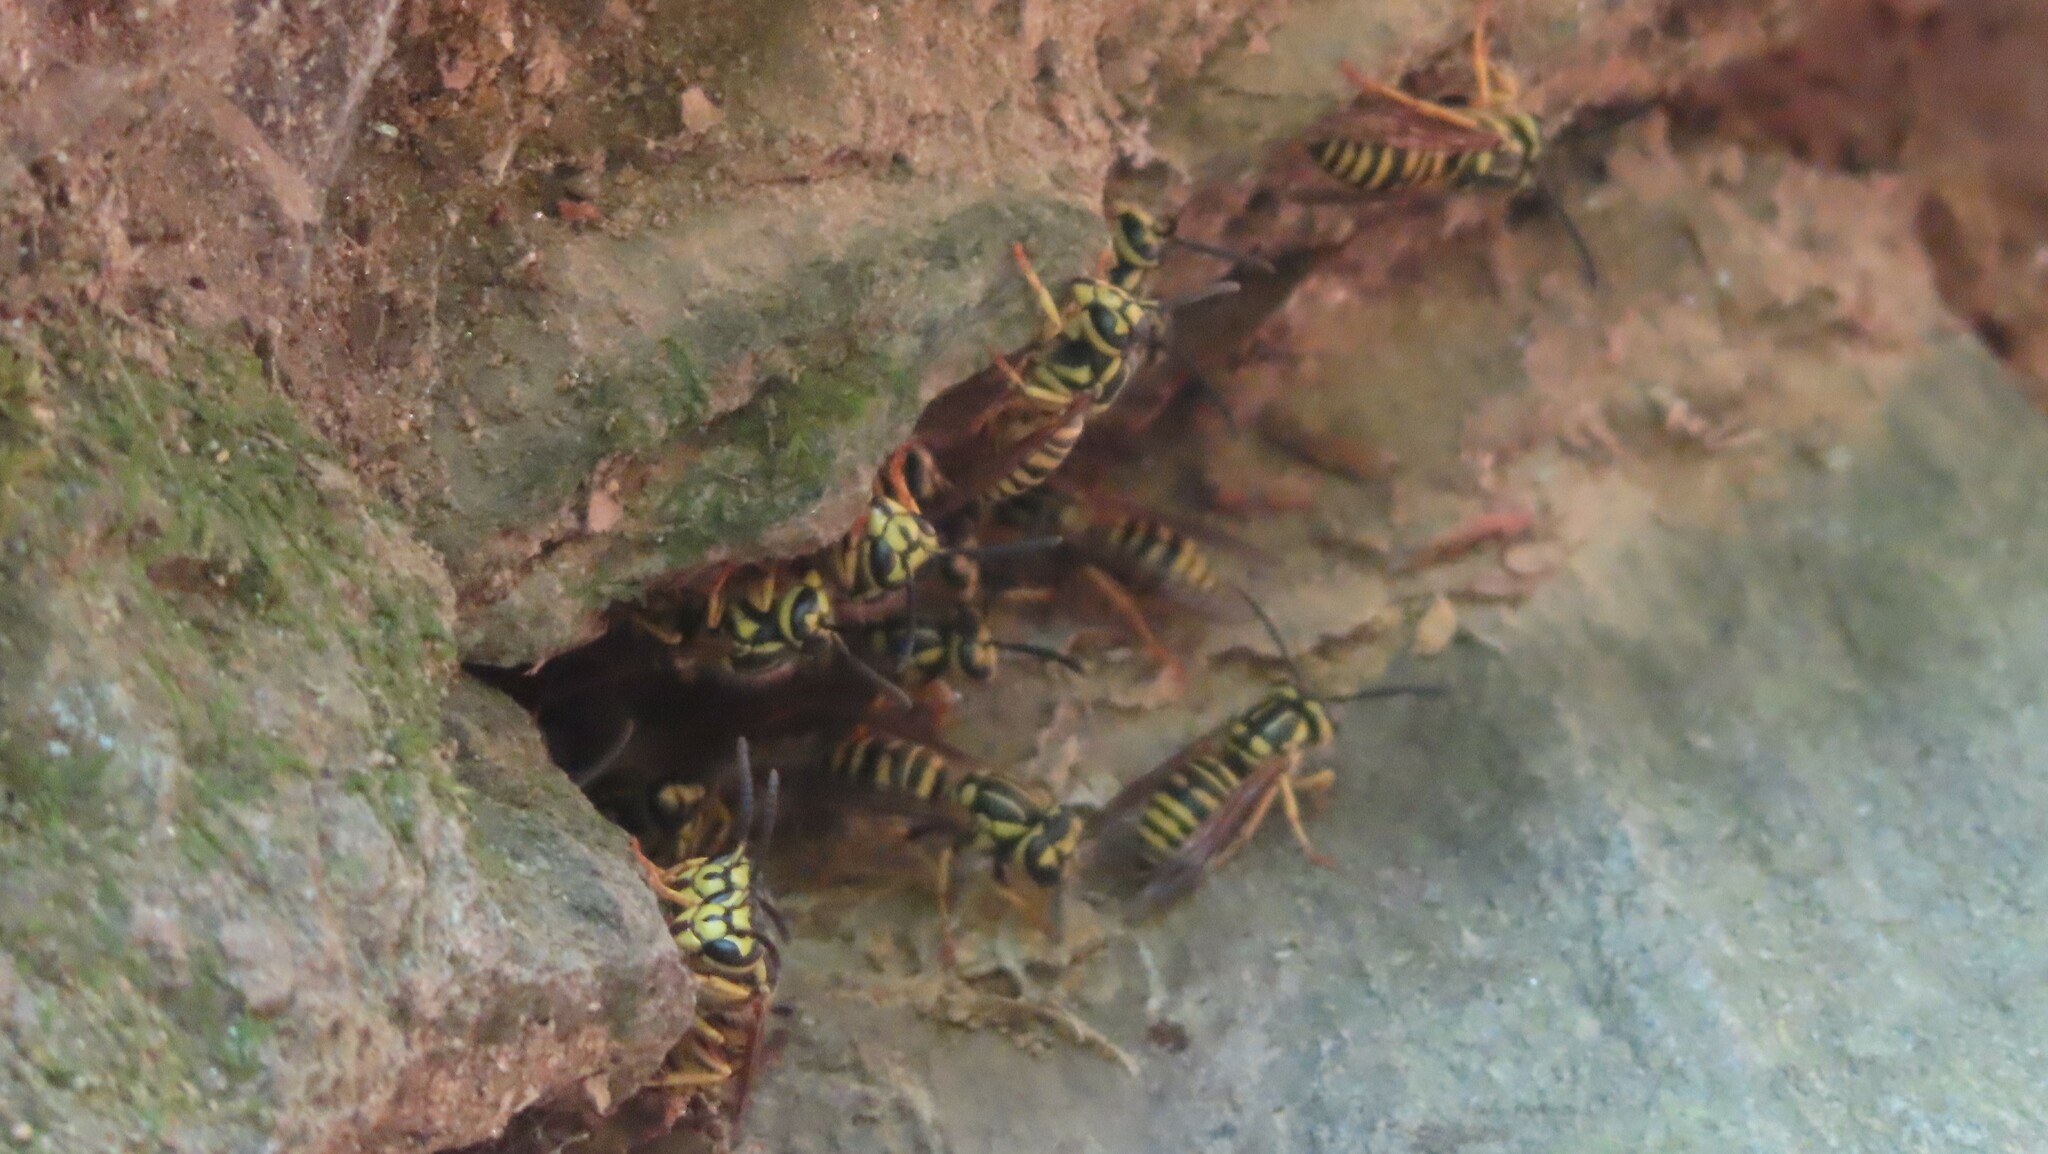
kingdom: Animalia
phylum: Arthropoda
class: Insecta
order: Hymenoptera
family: Vespidae
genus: Vespula
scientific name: Vespula squamosa
